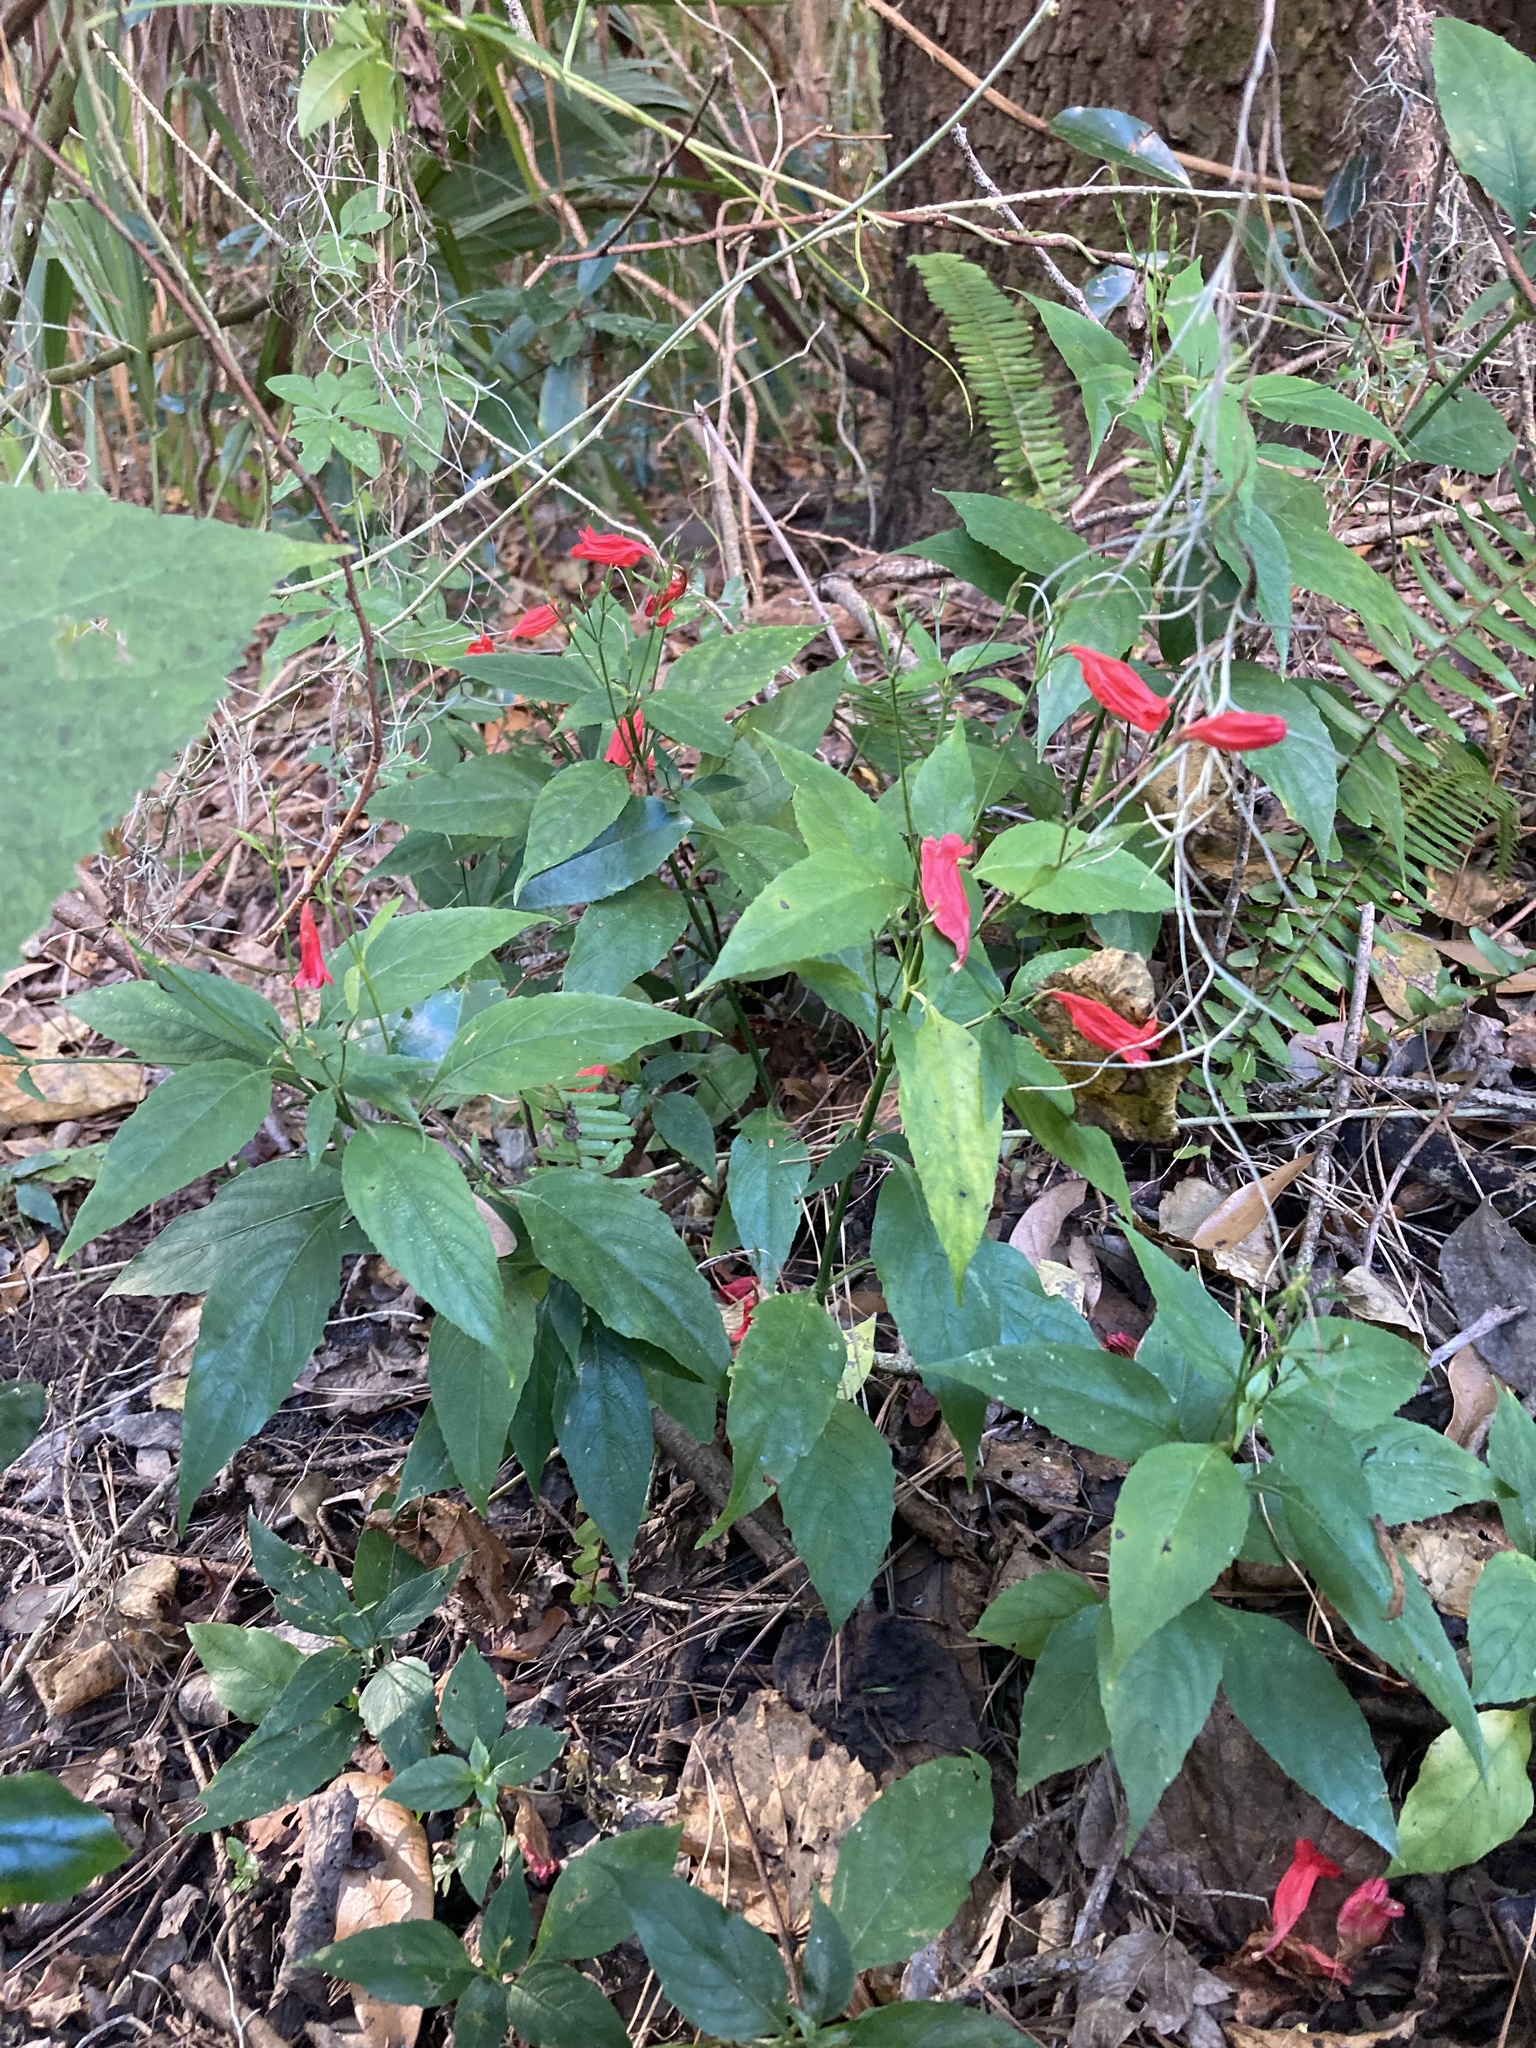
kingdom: Plantae
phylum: Tracheophyta
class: Magnoliopsida
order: Lamiales
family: Acanthaceae
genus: Ruellia
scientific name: Ruellia brevifolia
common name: Tropical wild petunia
